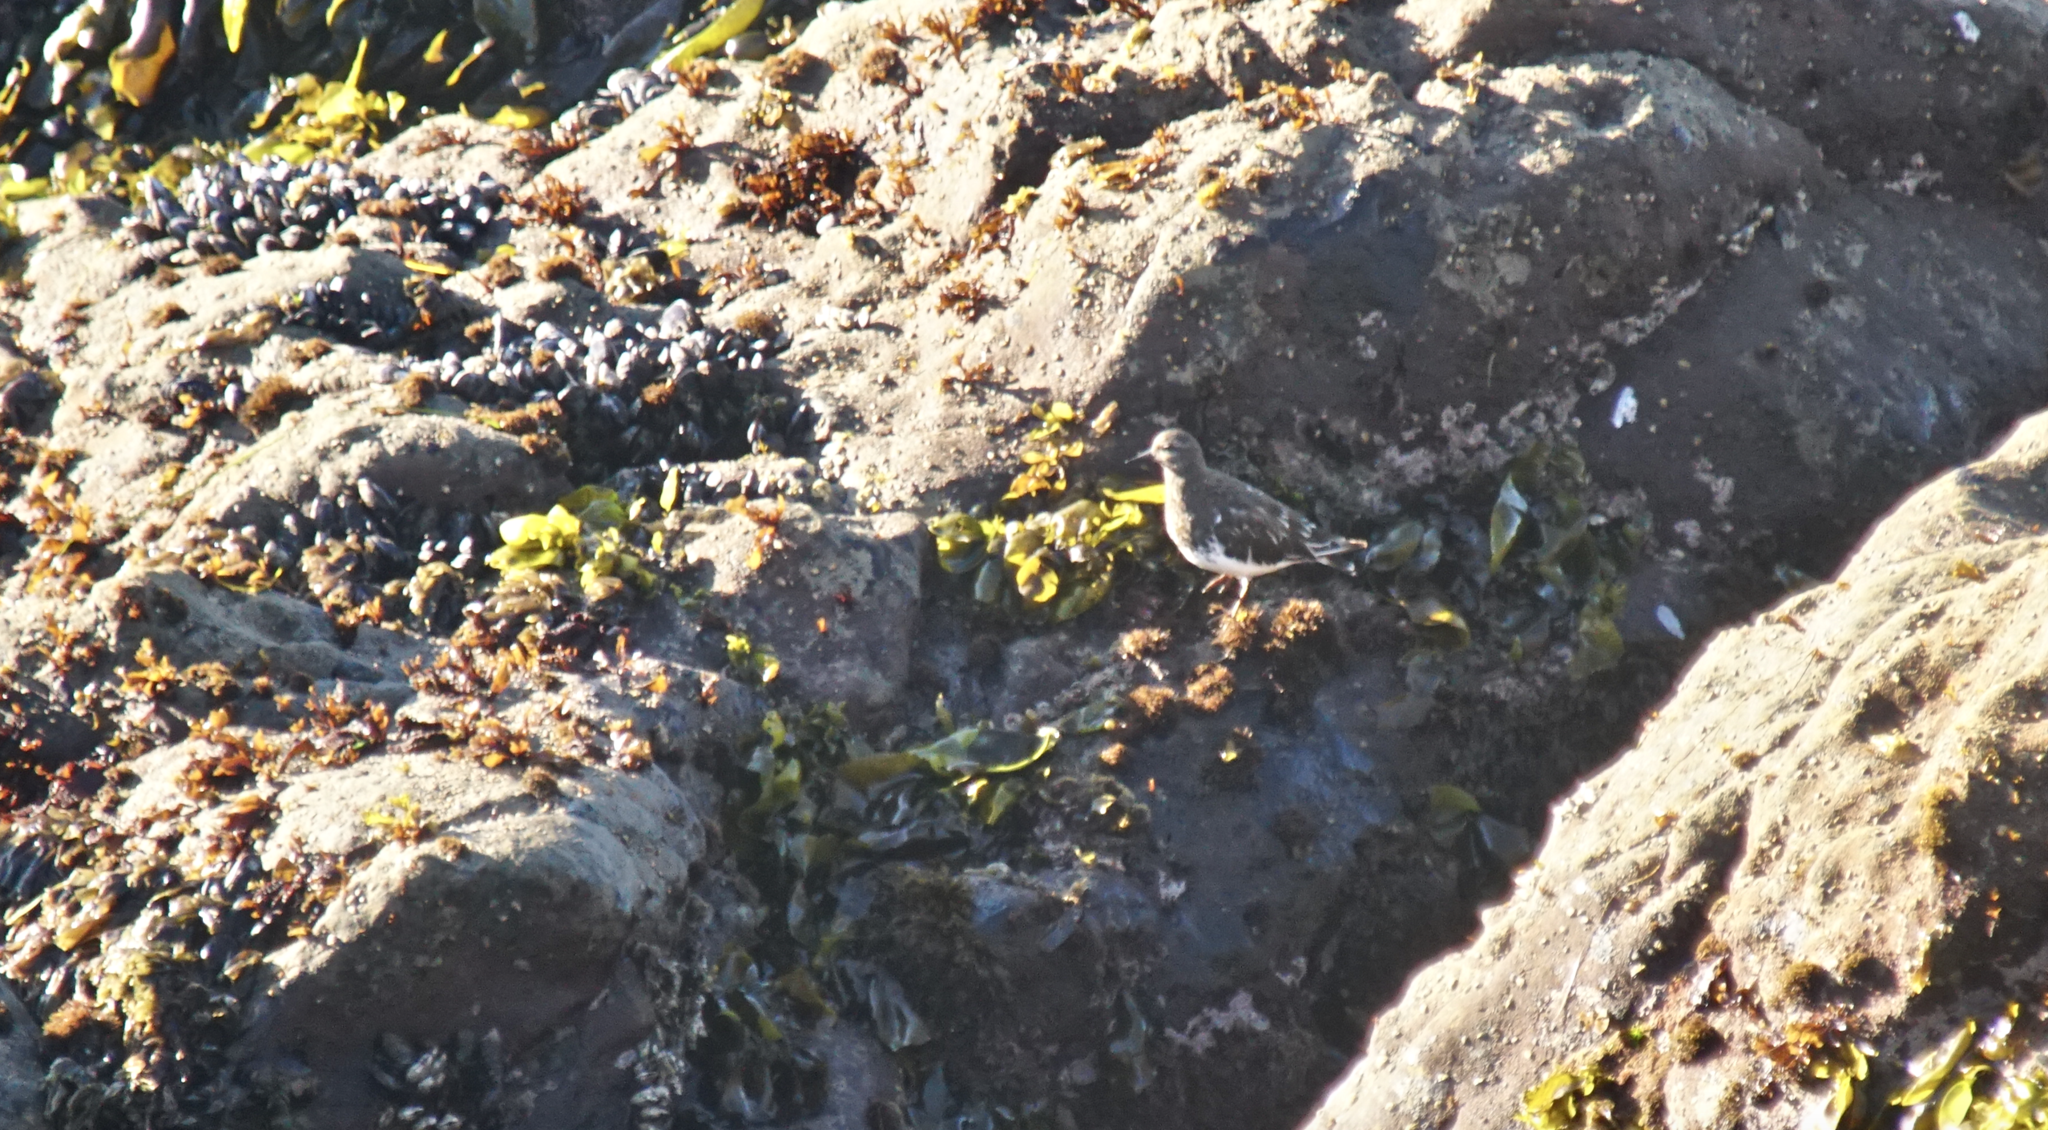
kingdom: Animalia
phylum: Chordata
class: Aves
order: Charadriiformes
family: Scolopacidae
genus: Arenaria
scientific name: Arenaria melanocephala
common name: Black turnstone
